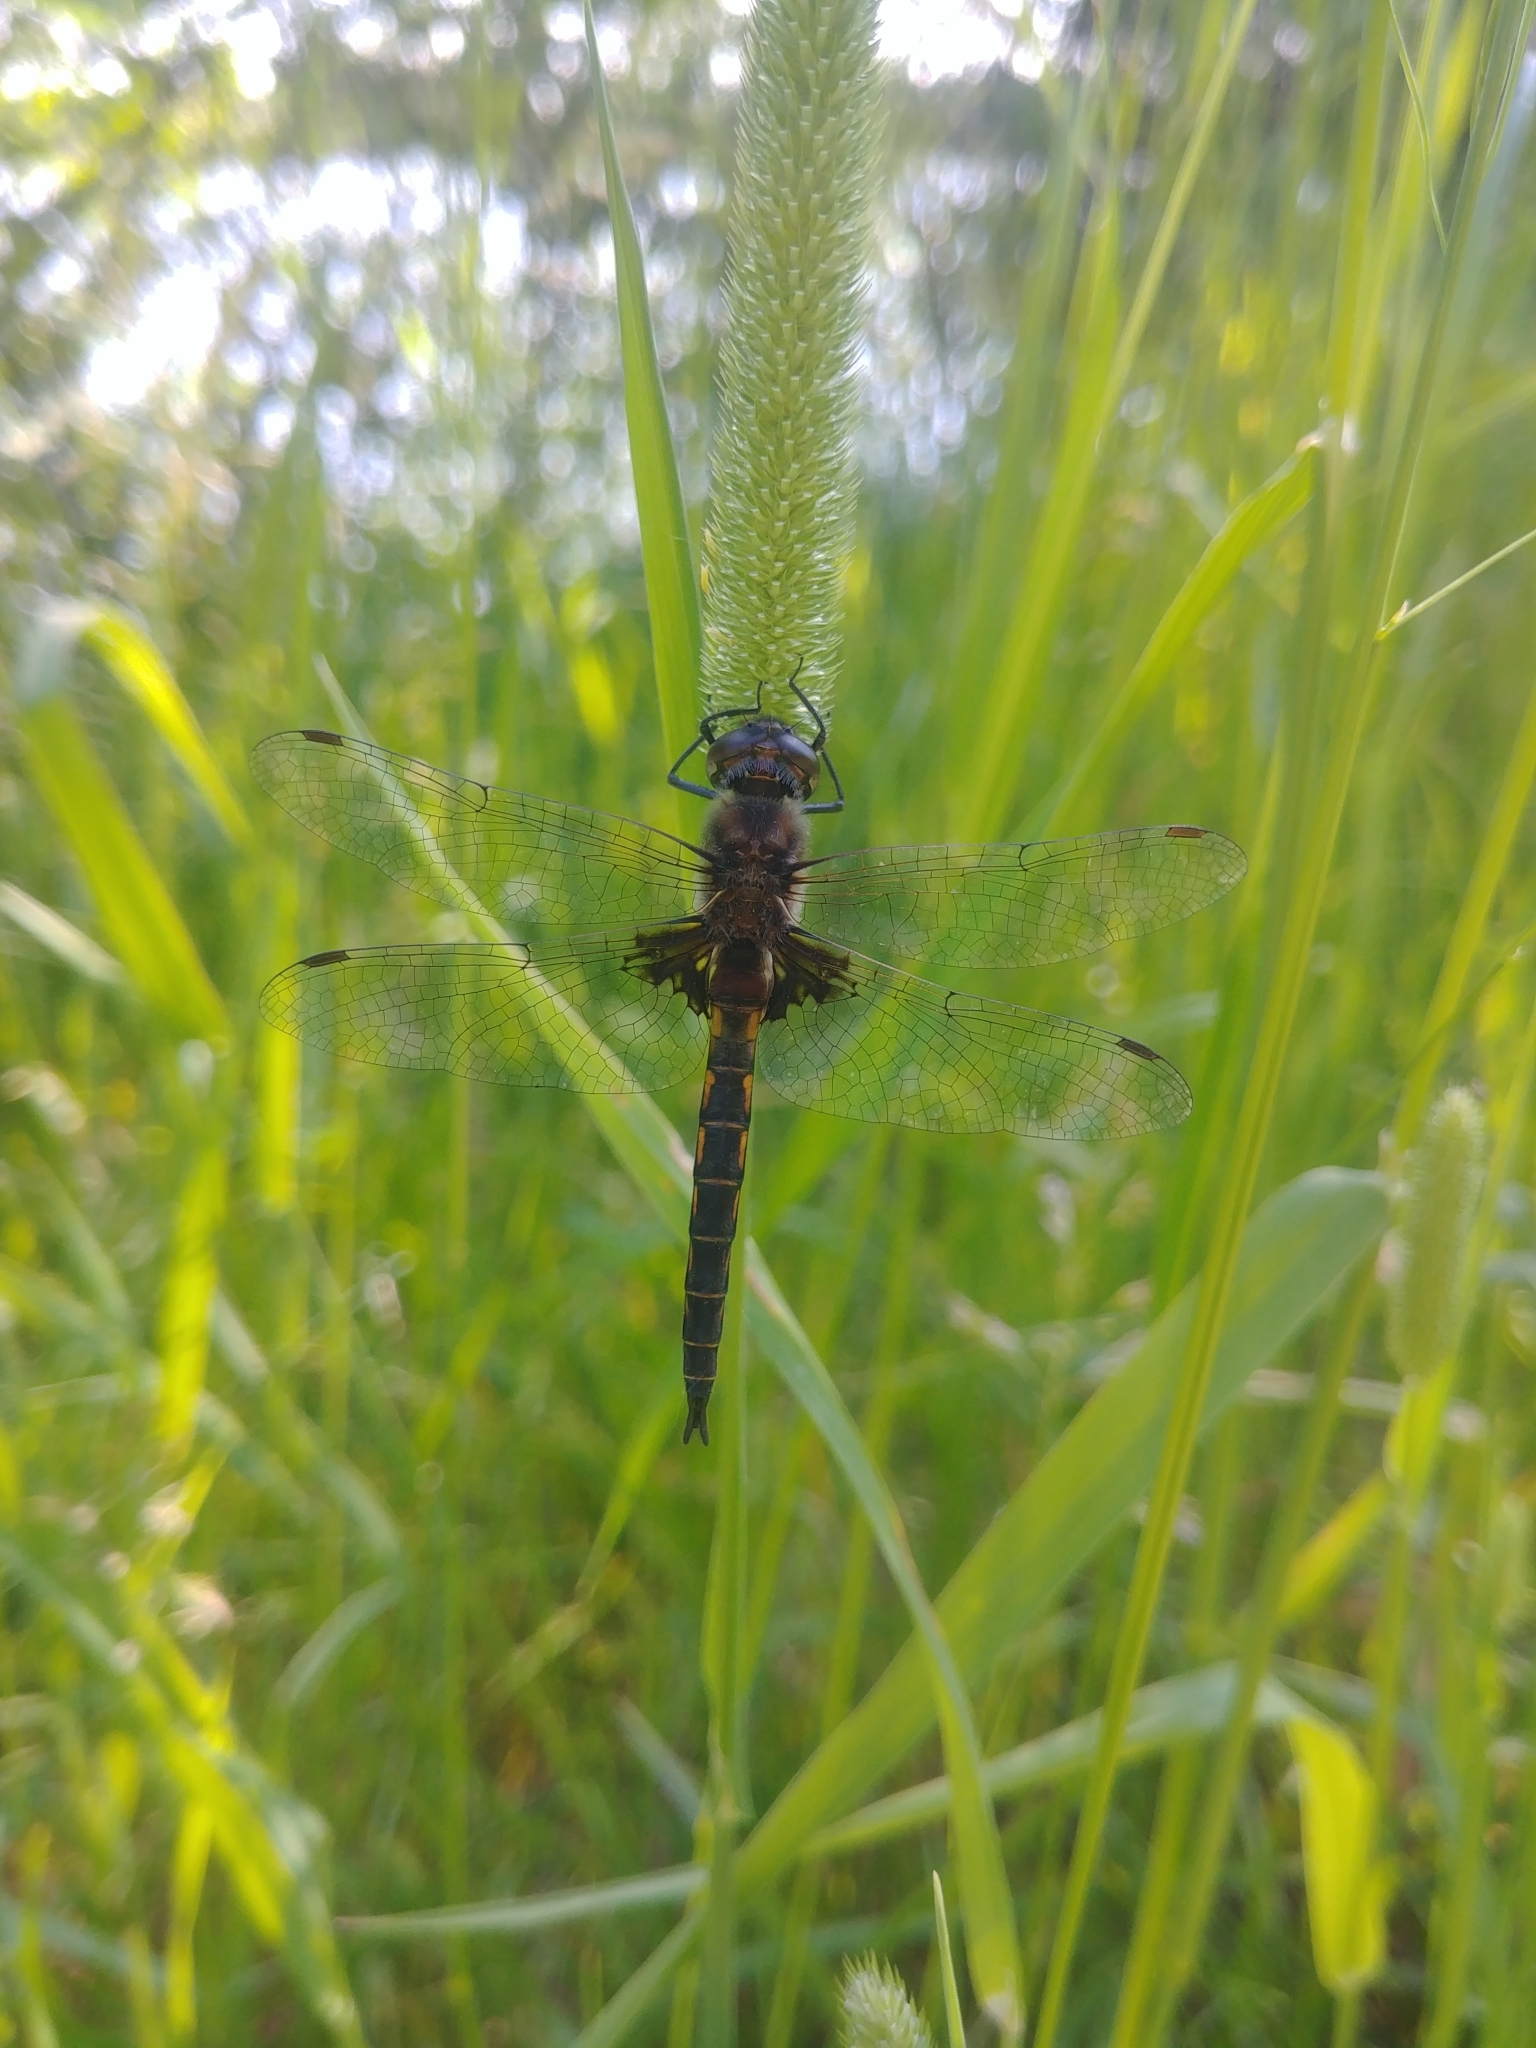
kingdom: Animalia
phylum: Arthropoda
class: Insecta
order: Odonata
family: Corduliidae
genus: Epitheca
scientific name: Epitheca cynosura
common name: Common baskettail
